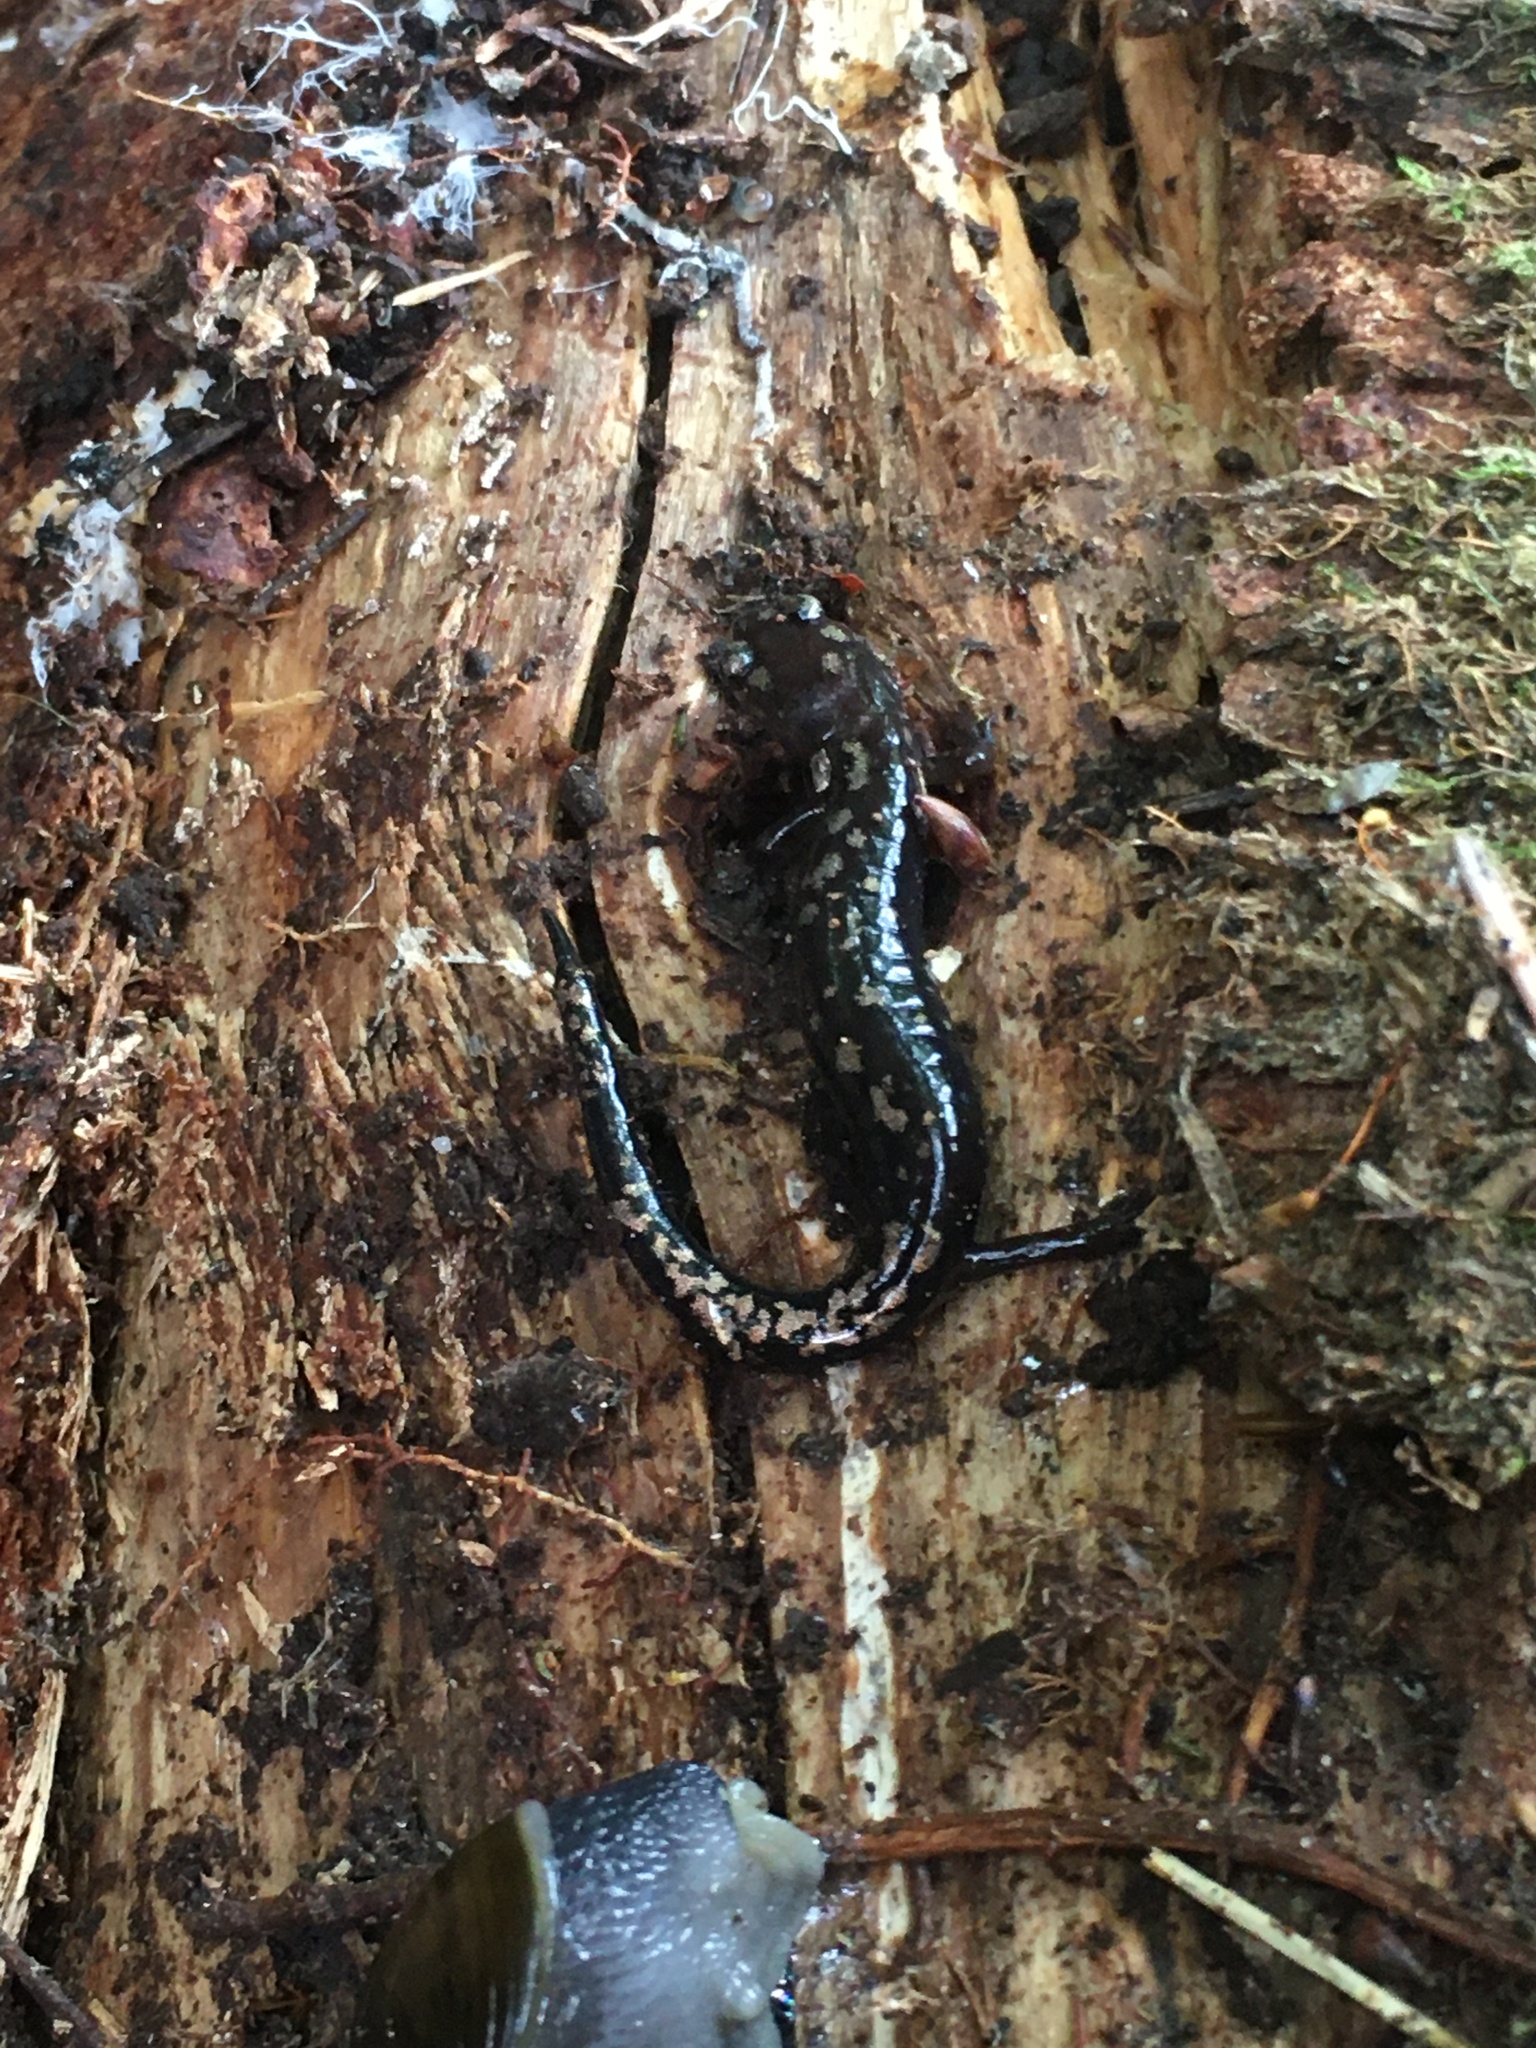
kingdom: Animalia
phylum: Chordata
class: Amphibia
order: Caudata
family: Plethodontidae
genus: Plethodon
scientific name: Plethodon welleri
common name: Weller's salamander
